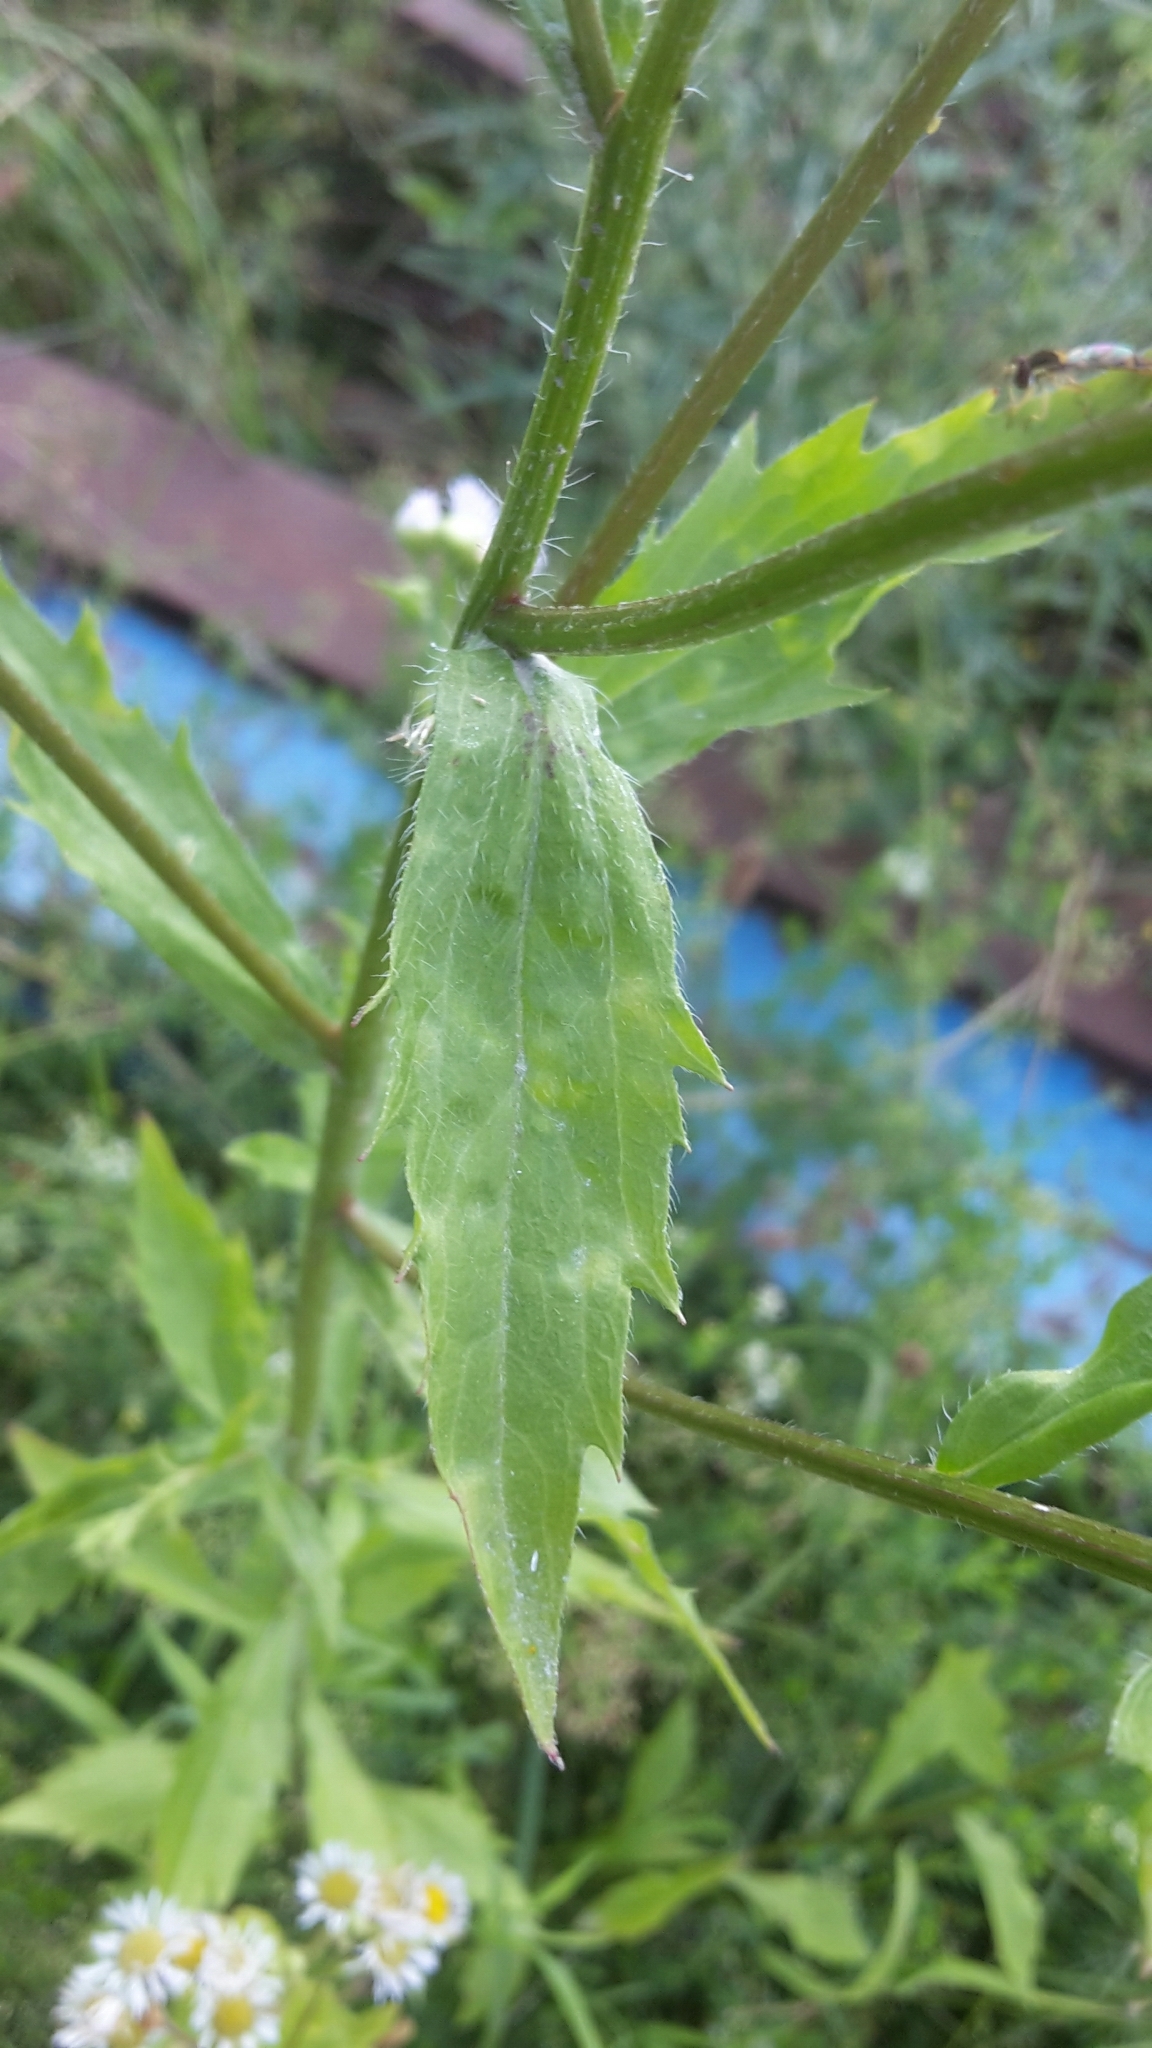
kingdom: Plantae
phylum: Tracheophyta
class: Magnoliopsida
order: Asterales
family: Asteraceae
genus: Erigeron
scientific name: Erigeron annuus
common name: Tall fleabane
